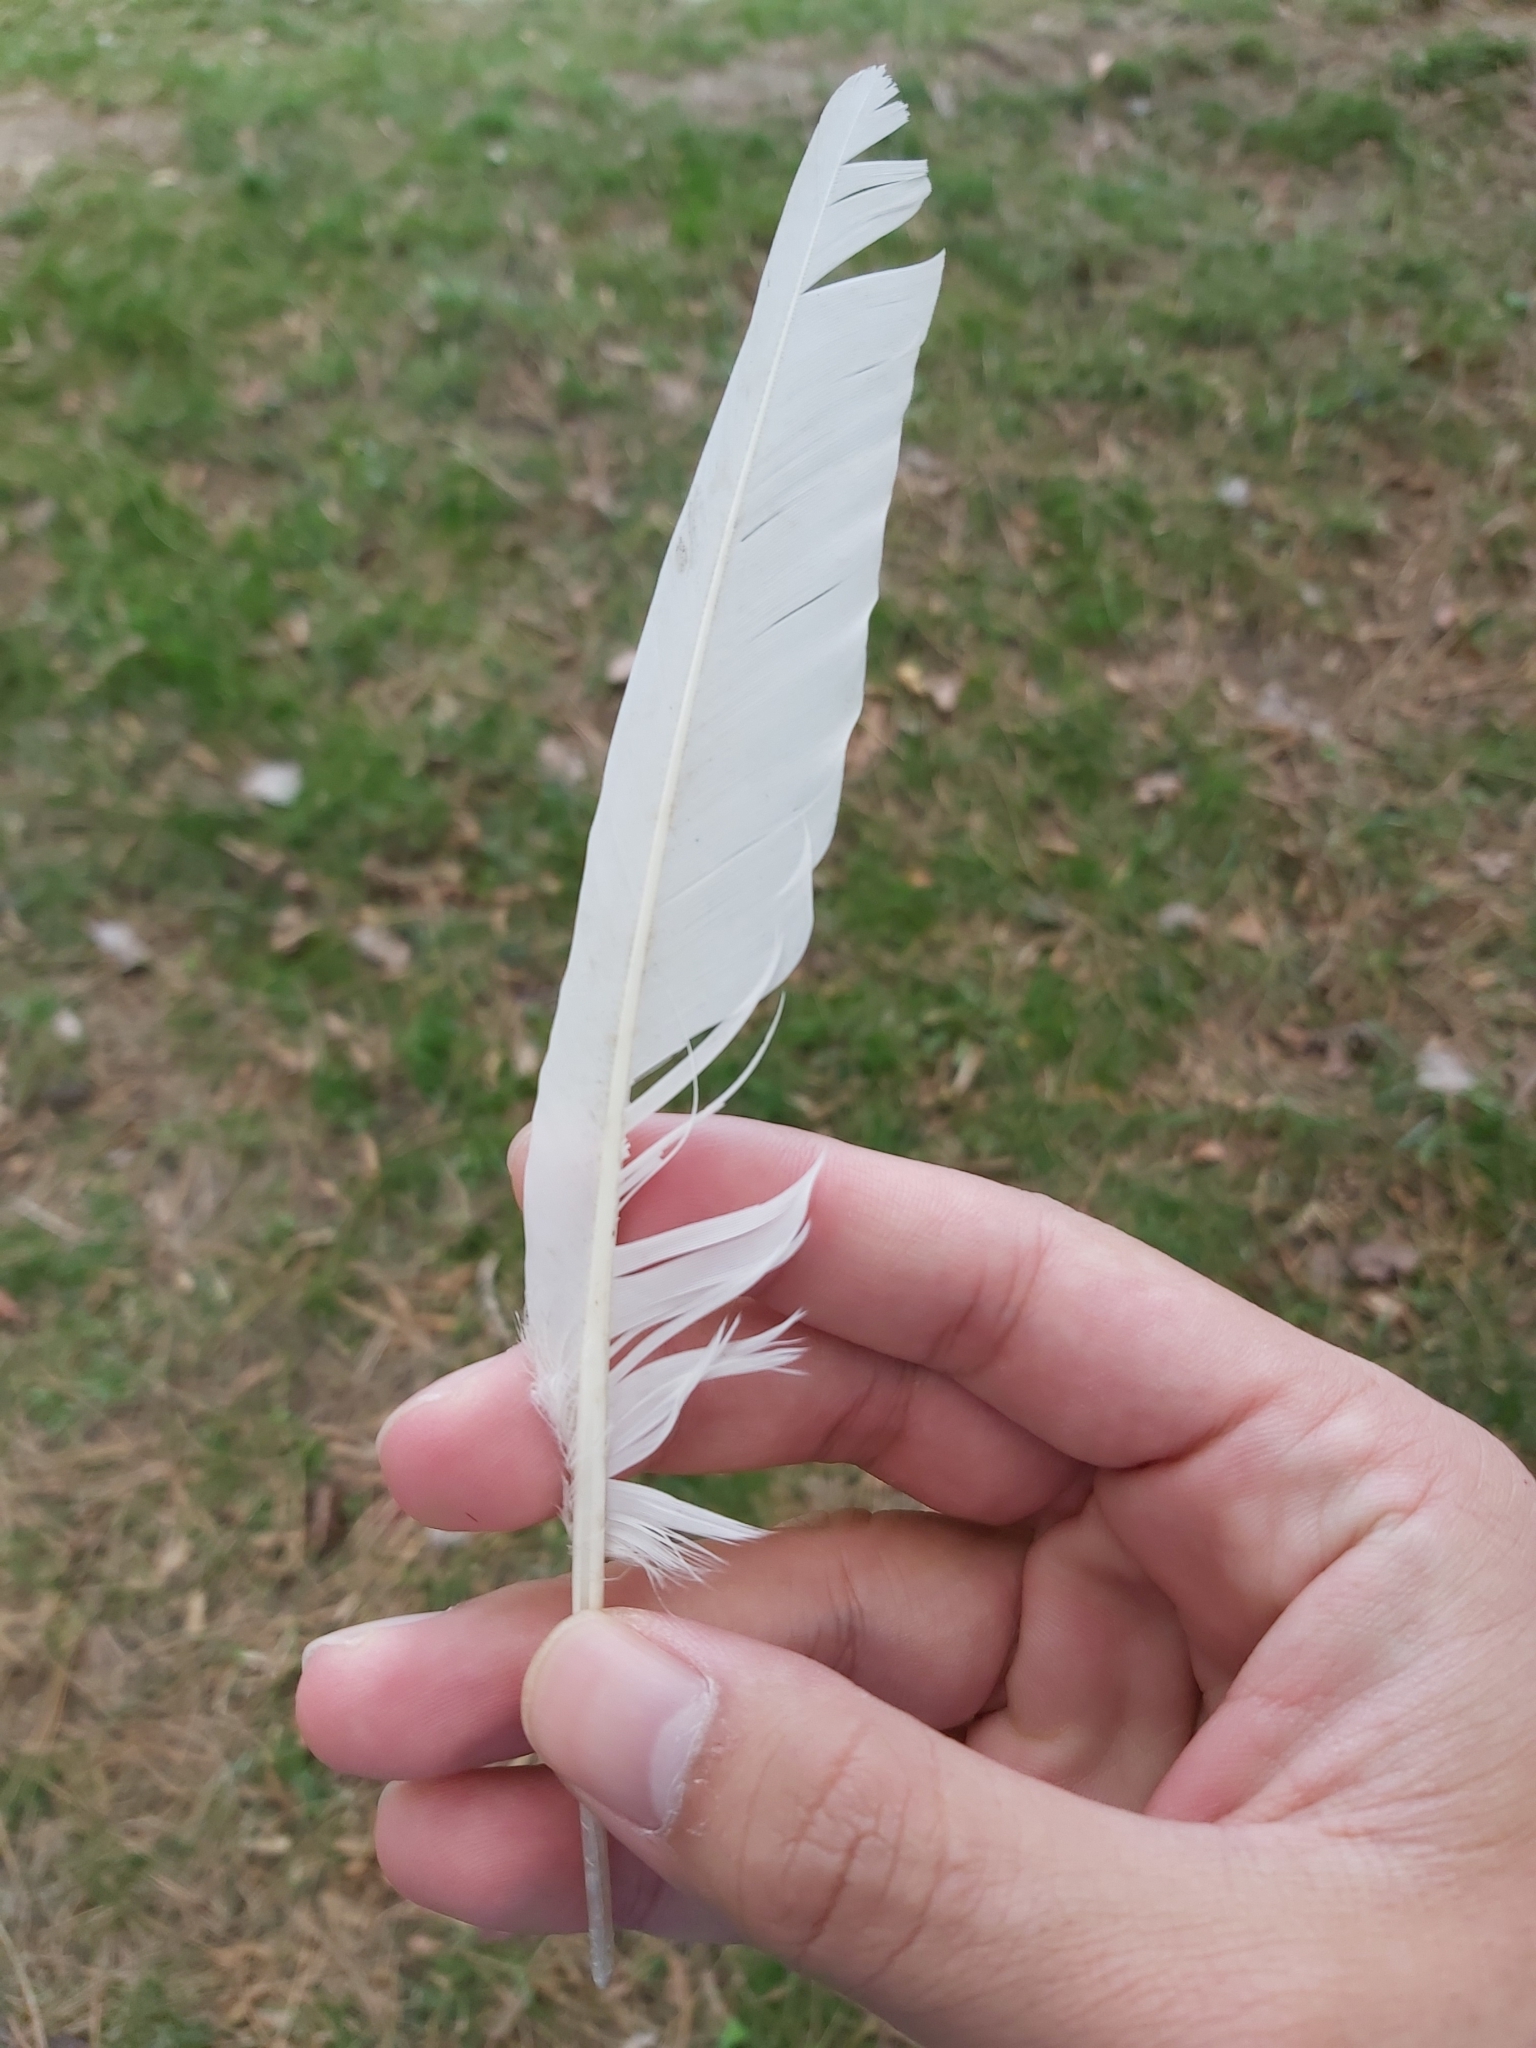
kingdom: Animalia
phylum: Chordata
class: Aves
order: Columbiformes
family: Columbidae
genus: Columba
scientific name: Columba livia
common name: Rock pigeon
